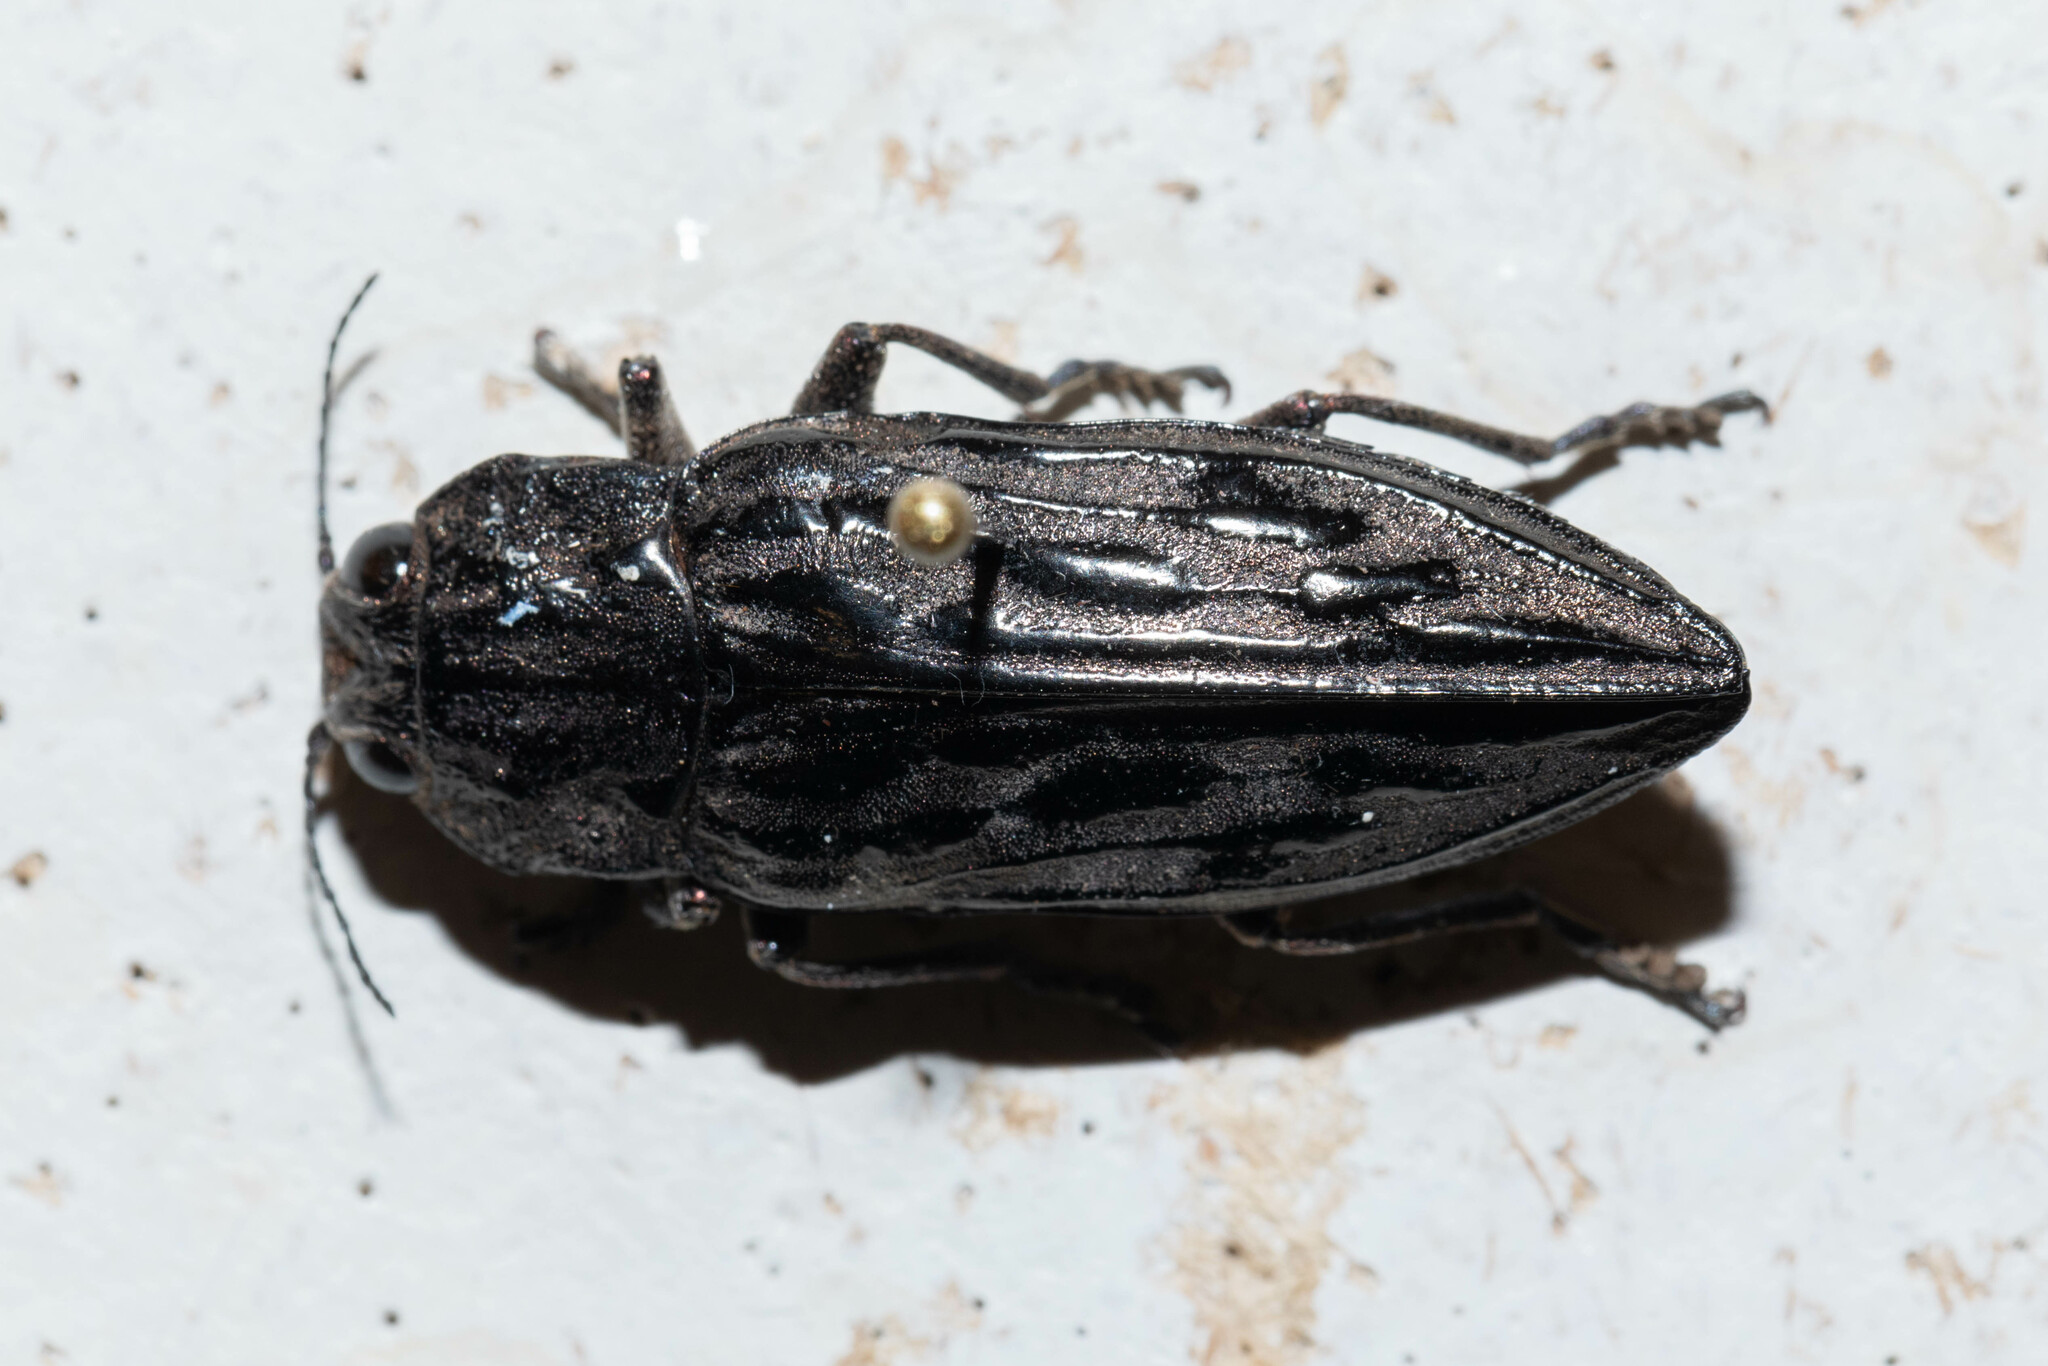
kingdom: Animalia
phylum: Arthropoda
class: Insecta
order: Coleoptera
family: Buprestidae
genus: Chalcophora
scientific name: Chalcophora angulicollis
